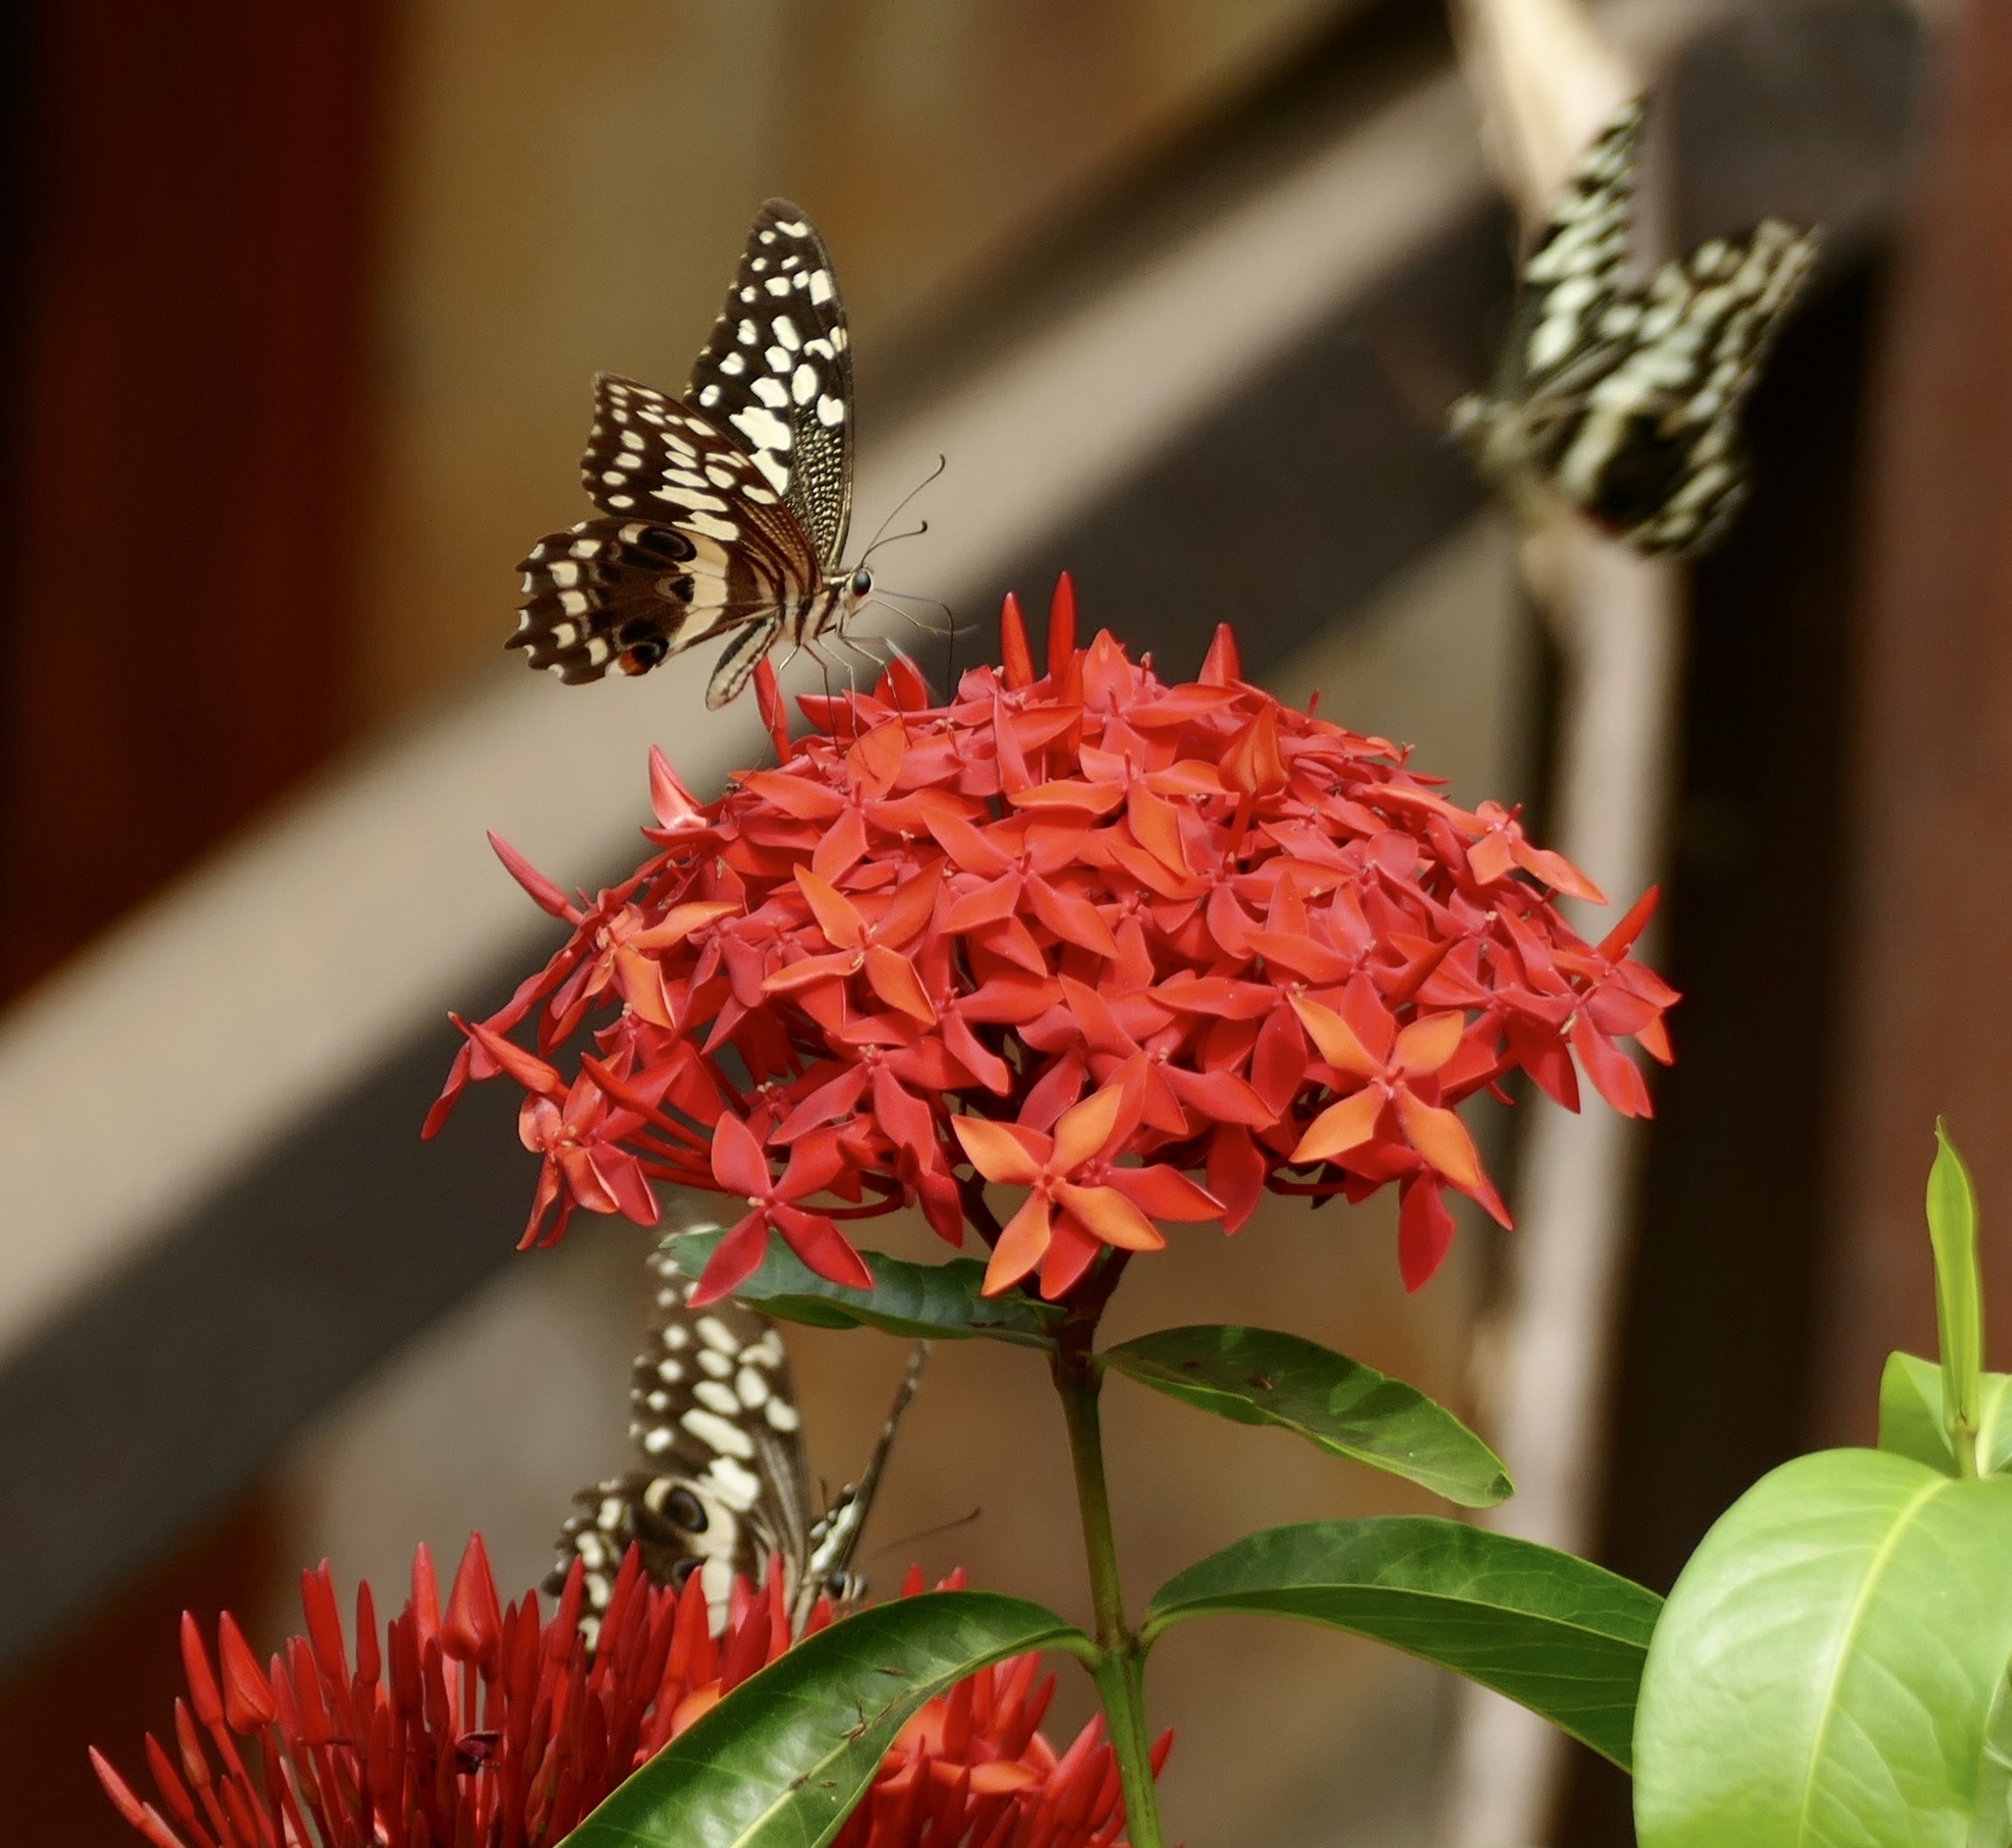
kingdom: Animalia
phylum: Arthropoda
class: Insecta
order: Lepidoptera
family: Papilionidae
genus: Papilio
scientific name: Papilio demodocus
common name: Christmas butterfly
